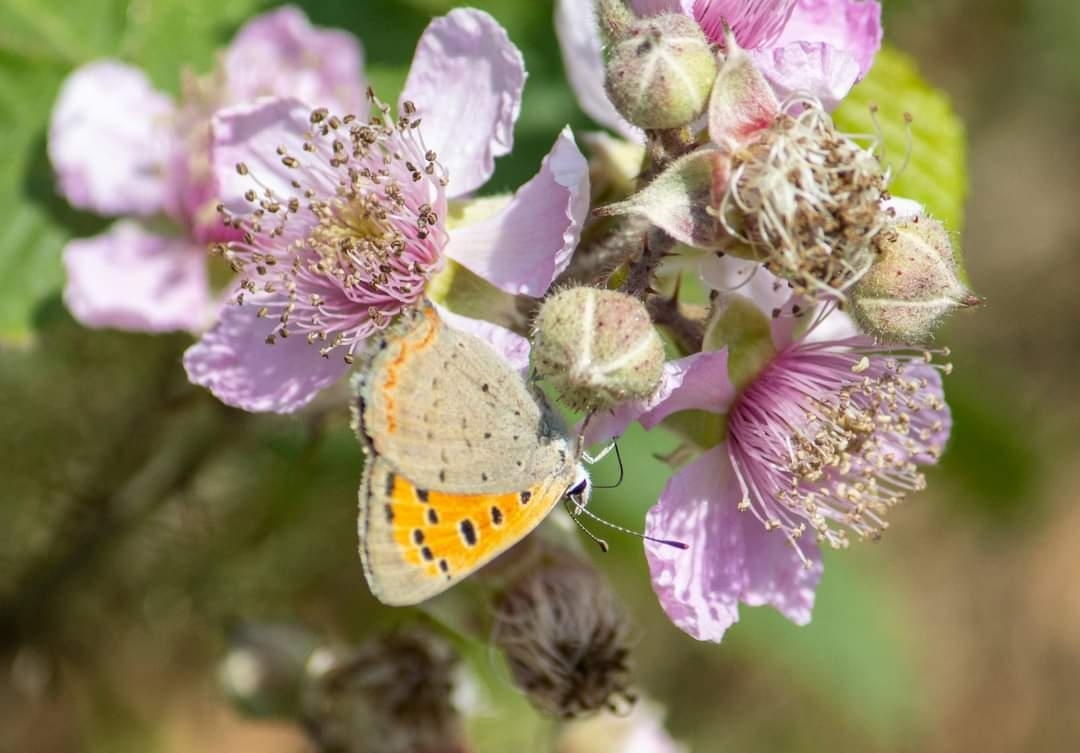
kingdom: Animalia
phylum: Arthropoda
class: Insecta
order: Lepidoptera
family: Lycaenidae
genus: Lycaena
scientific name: Lycaena phlaeas
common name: Small copper
